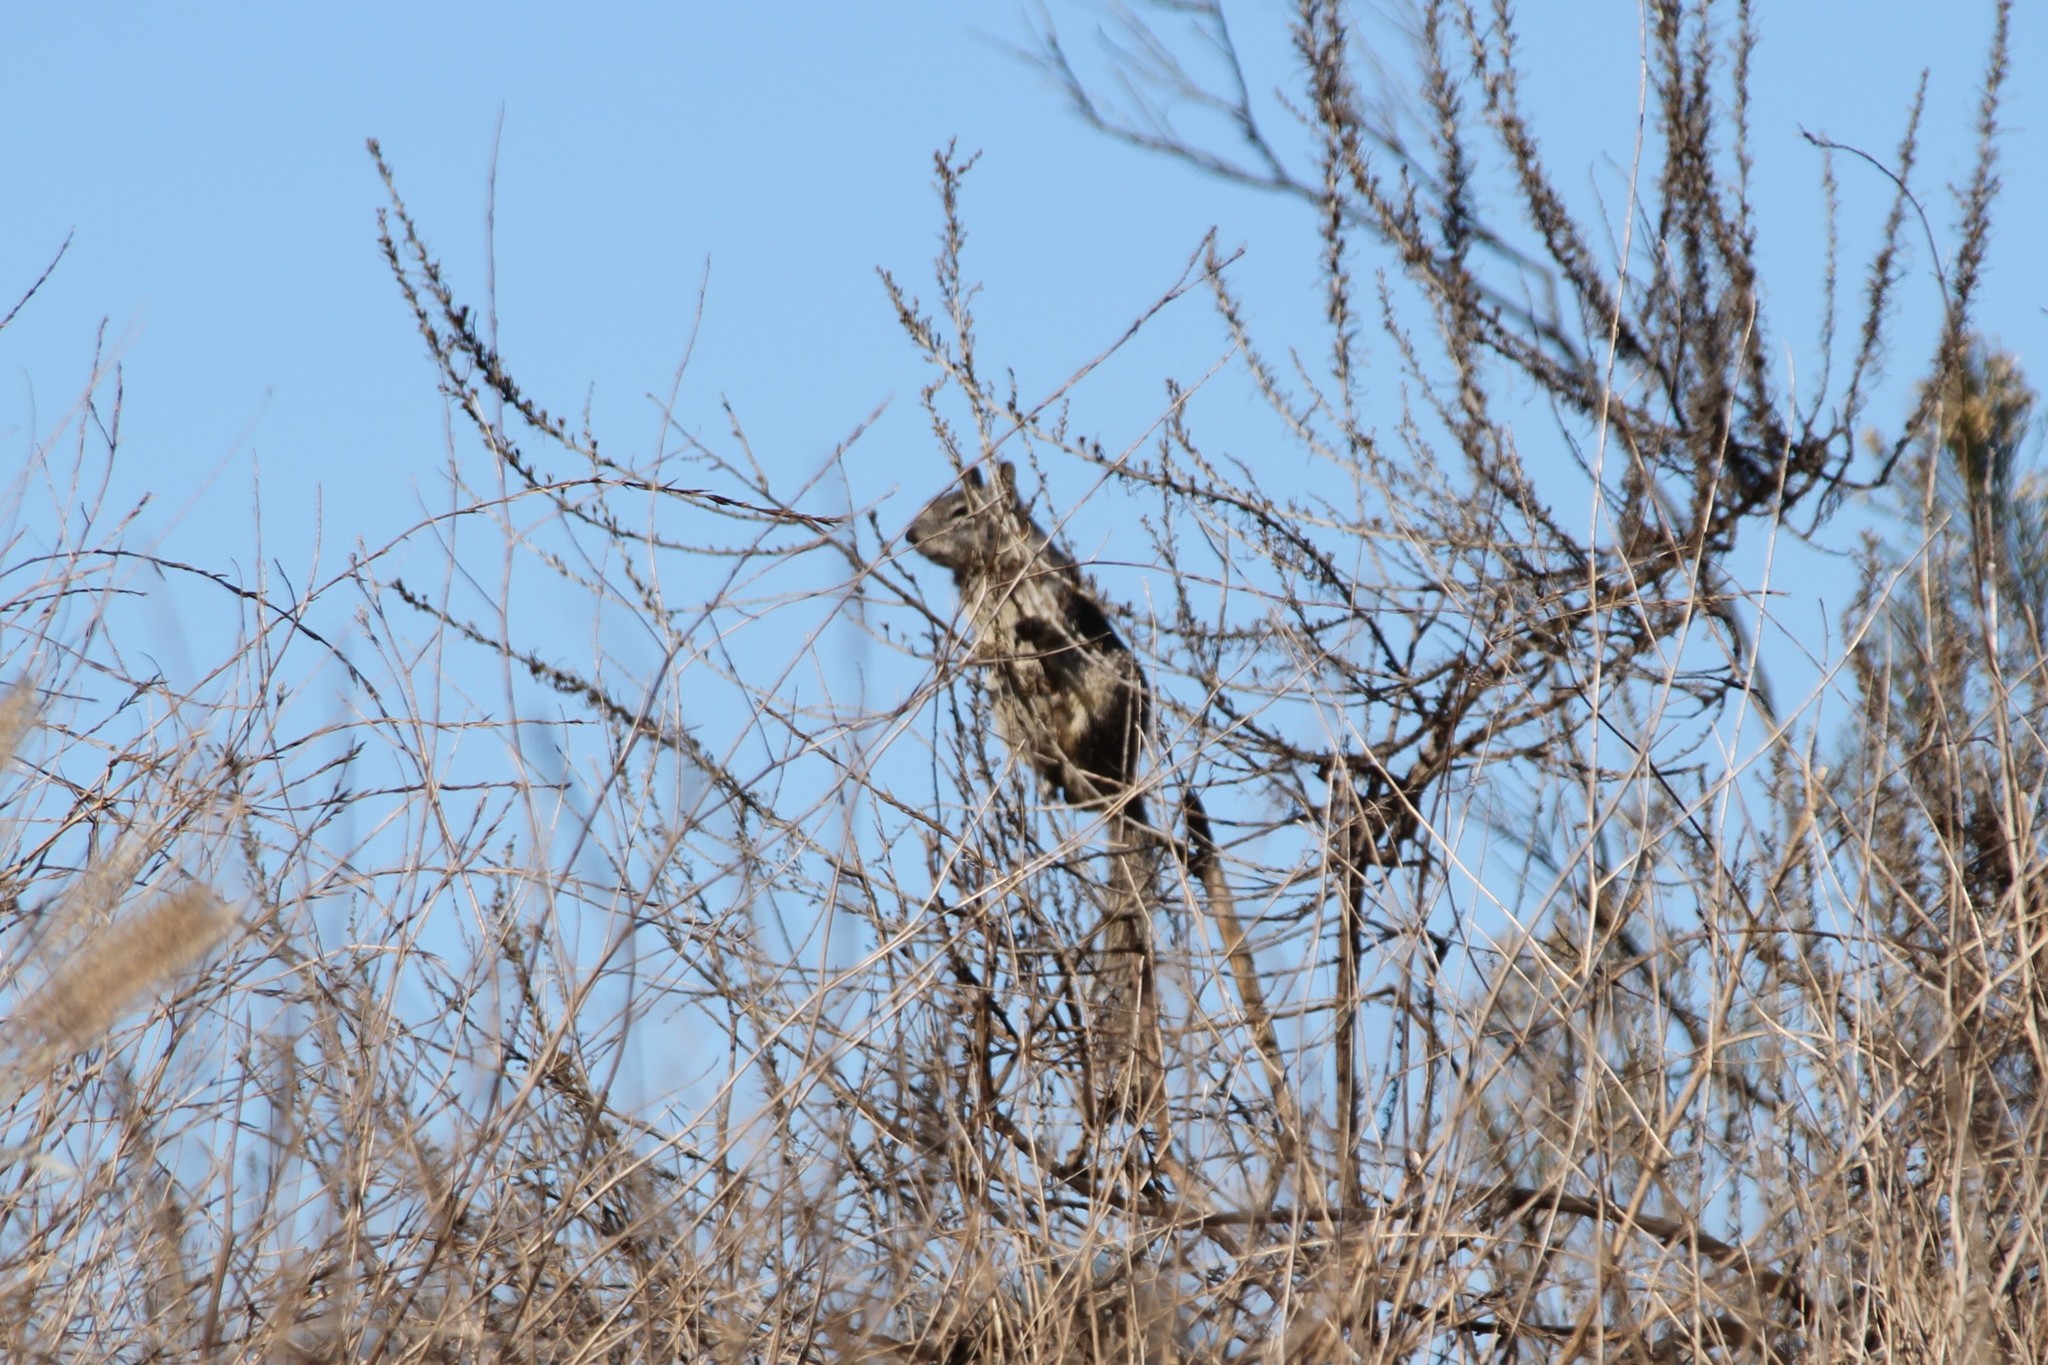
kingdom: Animalia
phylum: Chordata
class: Mammalia
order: Rodentia
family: Sciuridae
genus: Otospermophilus
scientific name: Otospermophilus beecheyi
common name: California ground squirrel
